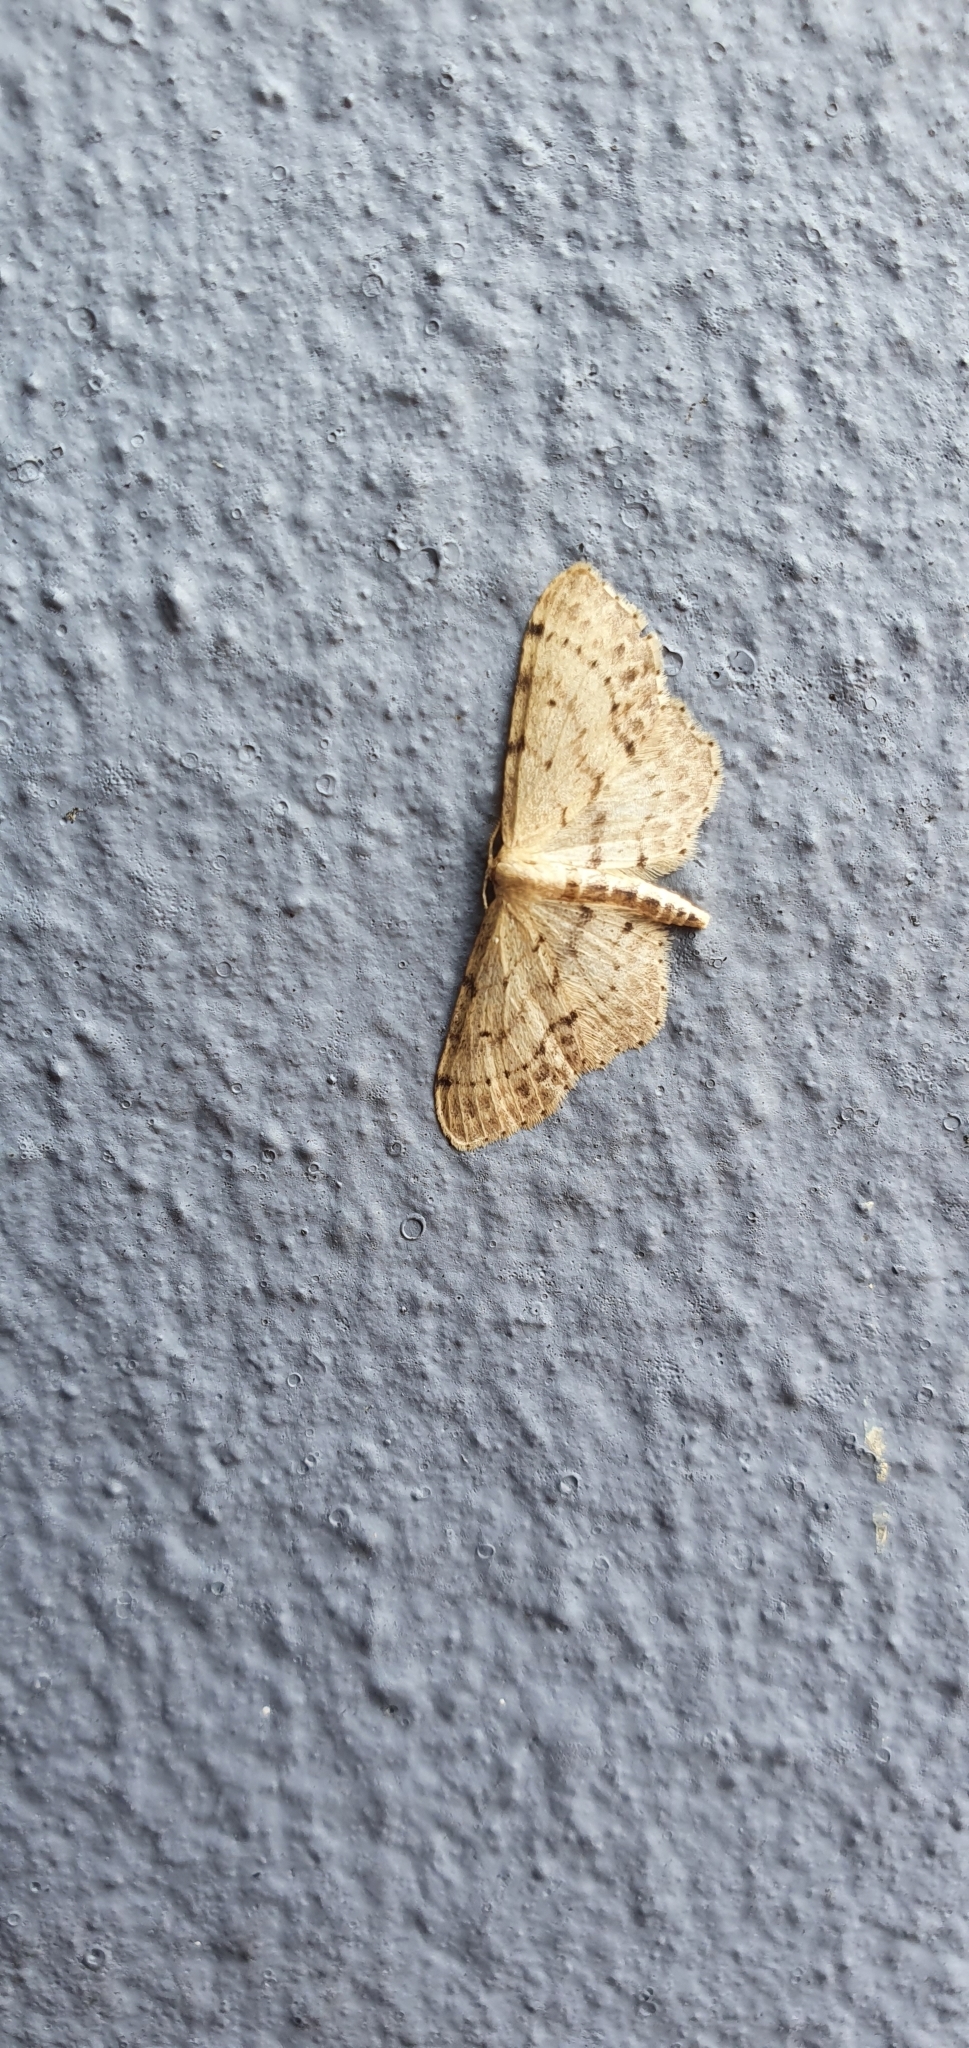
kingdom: Animalia
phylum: Arthropoda
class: Insecta
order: Lepidoptera
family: Geometridae
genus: Idaea
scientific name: Idaea dimidiata
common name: Single-dotted wave
